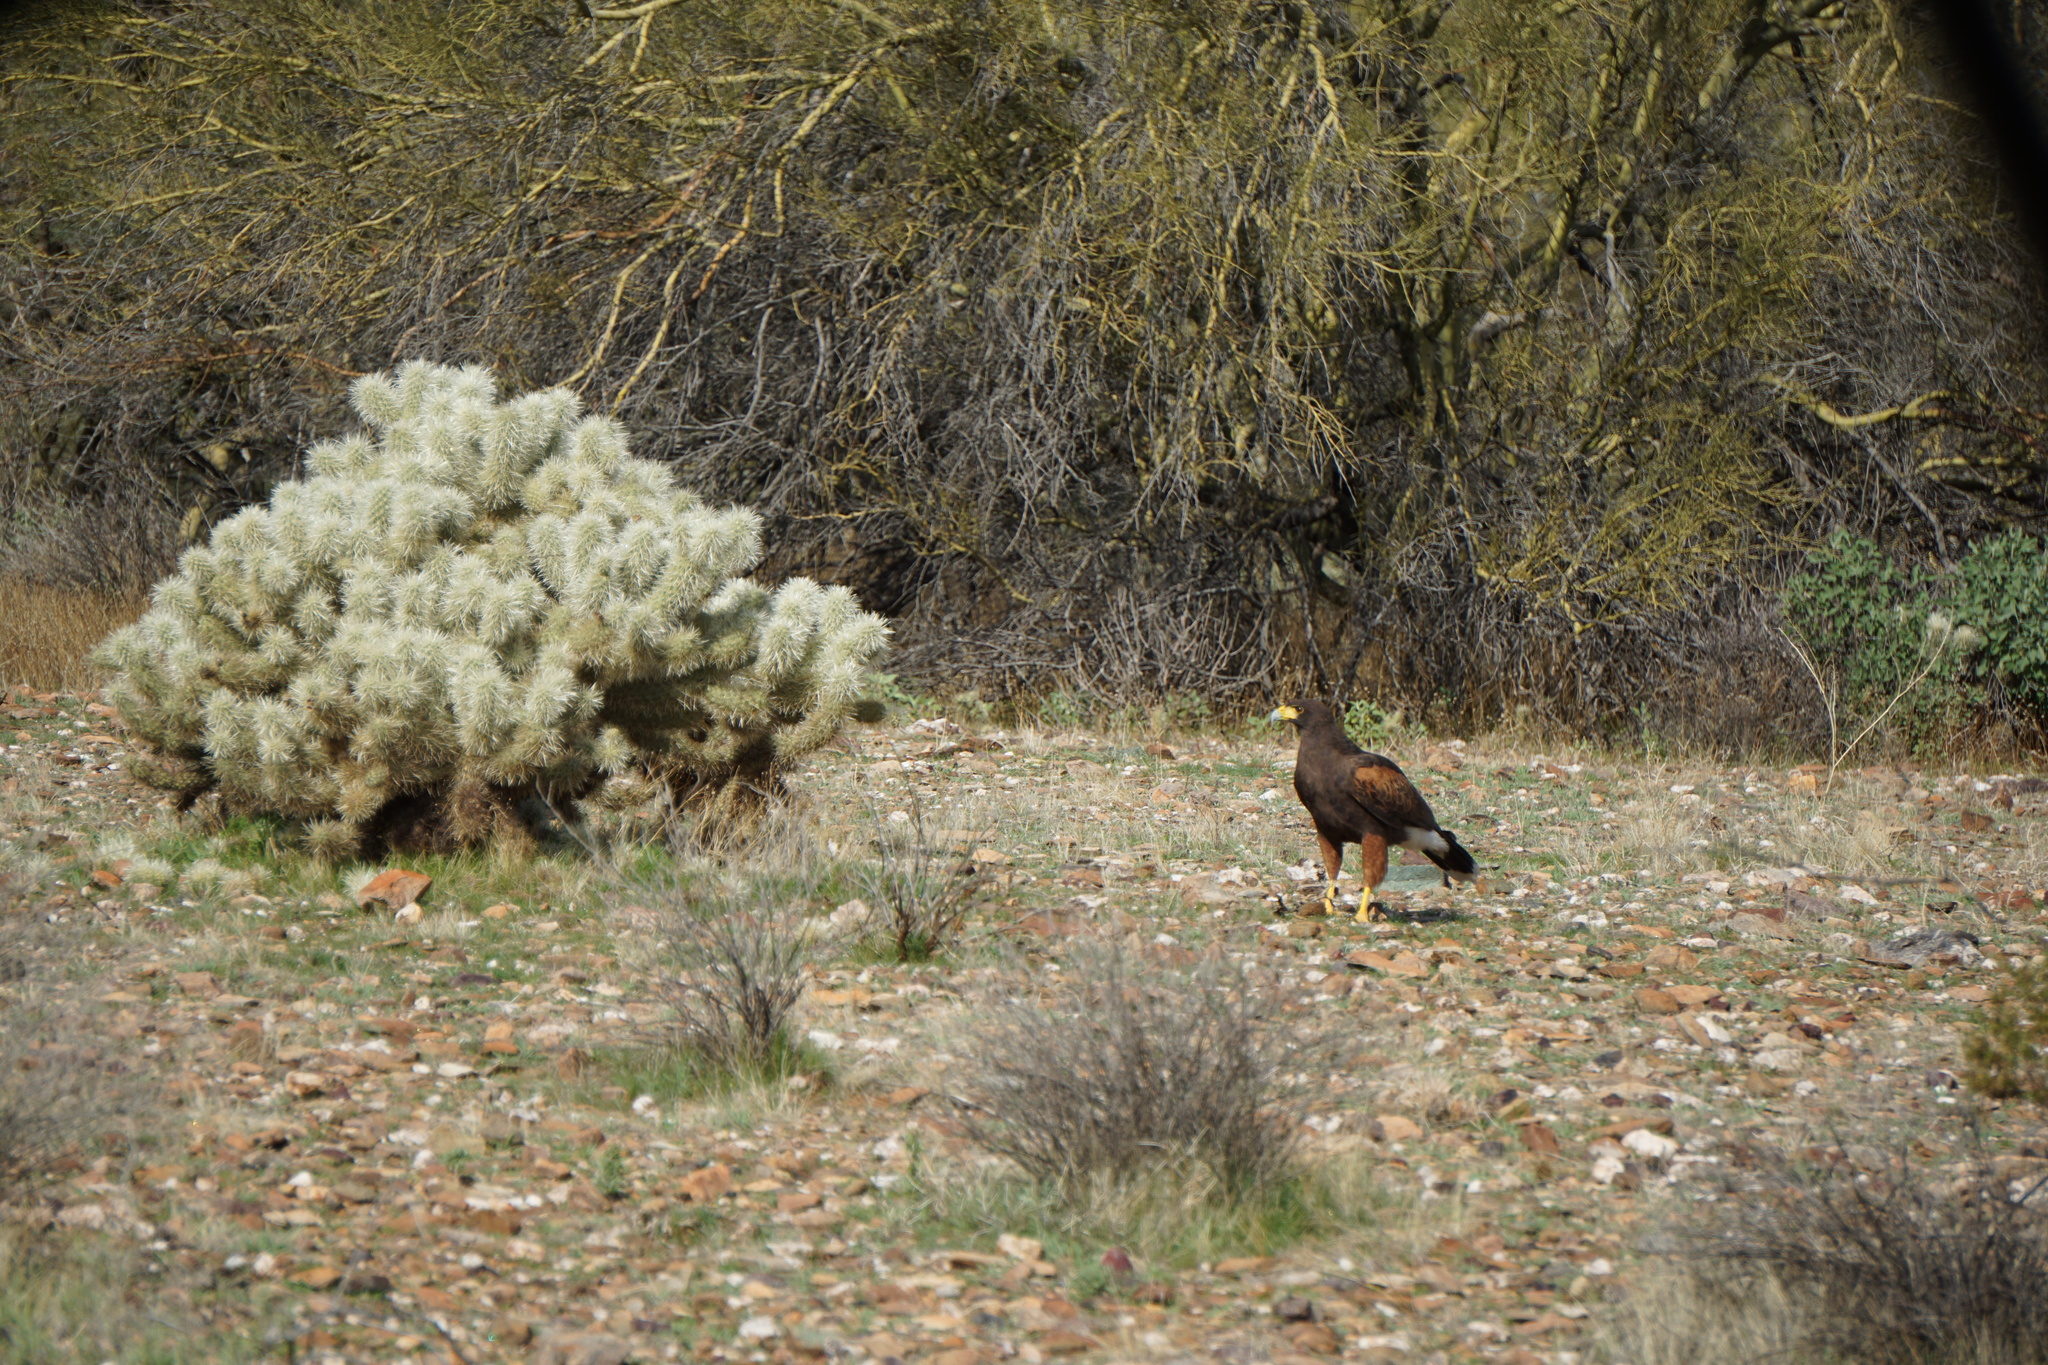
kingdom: Animalia
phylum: Chordata
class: Aves
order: Accipitriformes
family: Accipitridae
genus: Parabuteo
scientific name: Parabuteo unicinctus
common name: Harris's hawk
